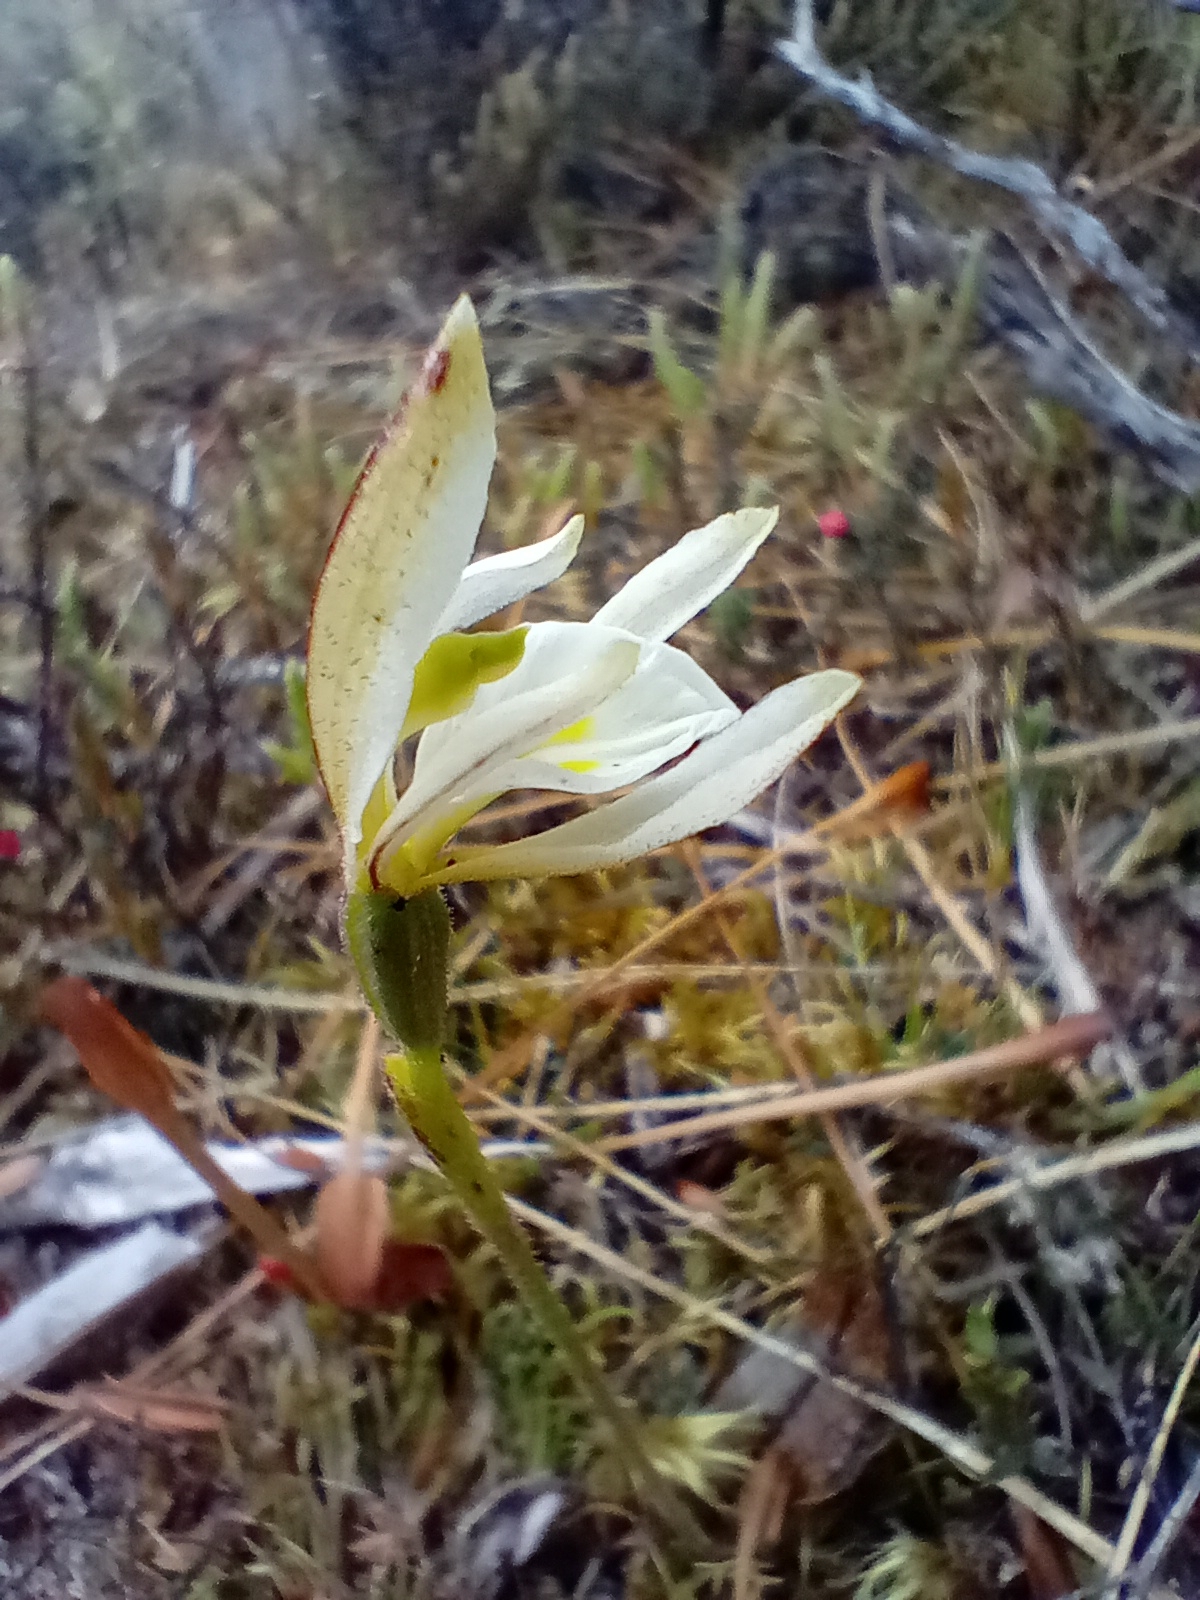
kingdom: Plantae
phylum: Tracheophyta
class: Liliopsida
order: Asparagales
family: Orchidaceae
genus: Aporostylis
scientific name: Aporostylis bifolia
